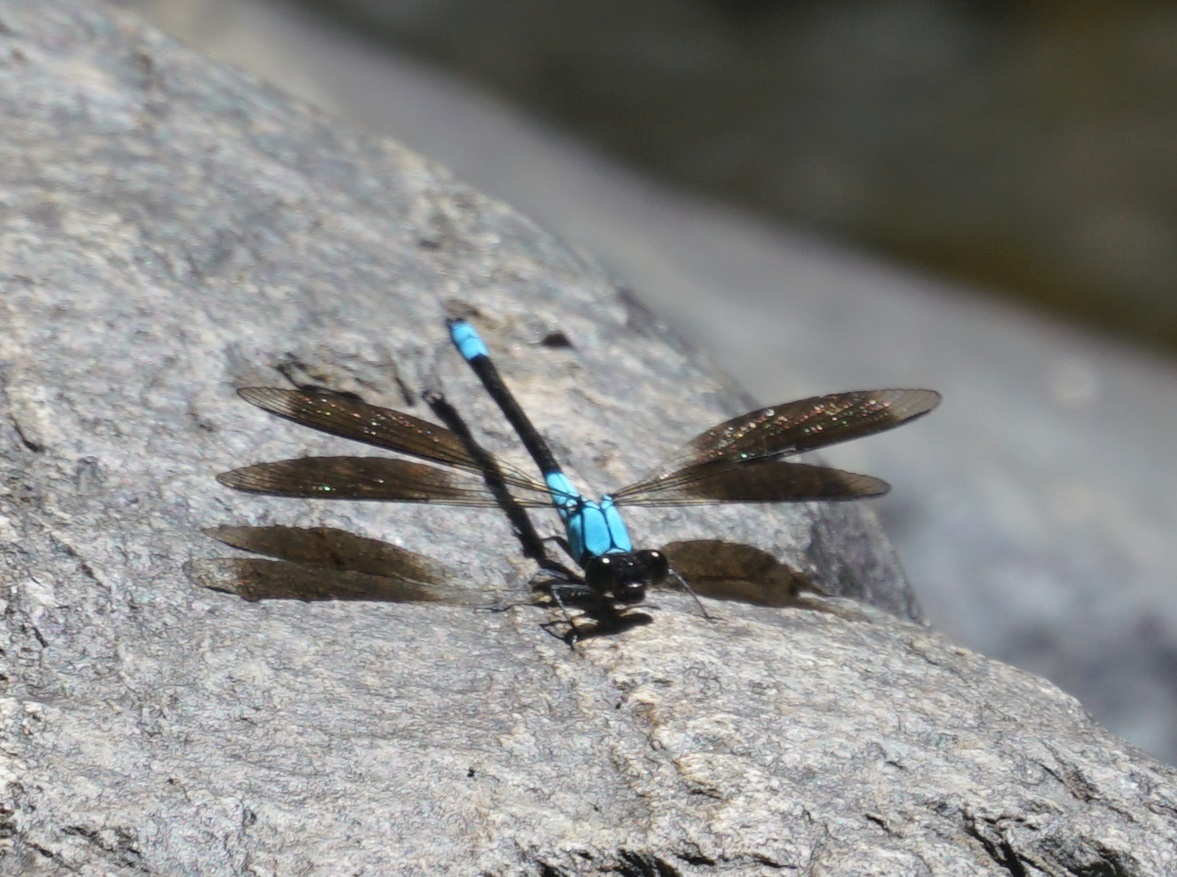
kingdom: Animalia
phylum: Arthropoda
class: Insecta
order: Odonata
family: Lestoideidae
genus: Diphlebia
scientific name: Diphlebia euphoeoides
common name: Tropical rockmaster
